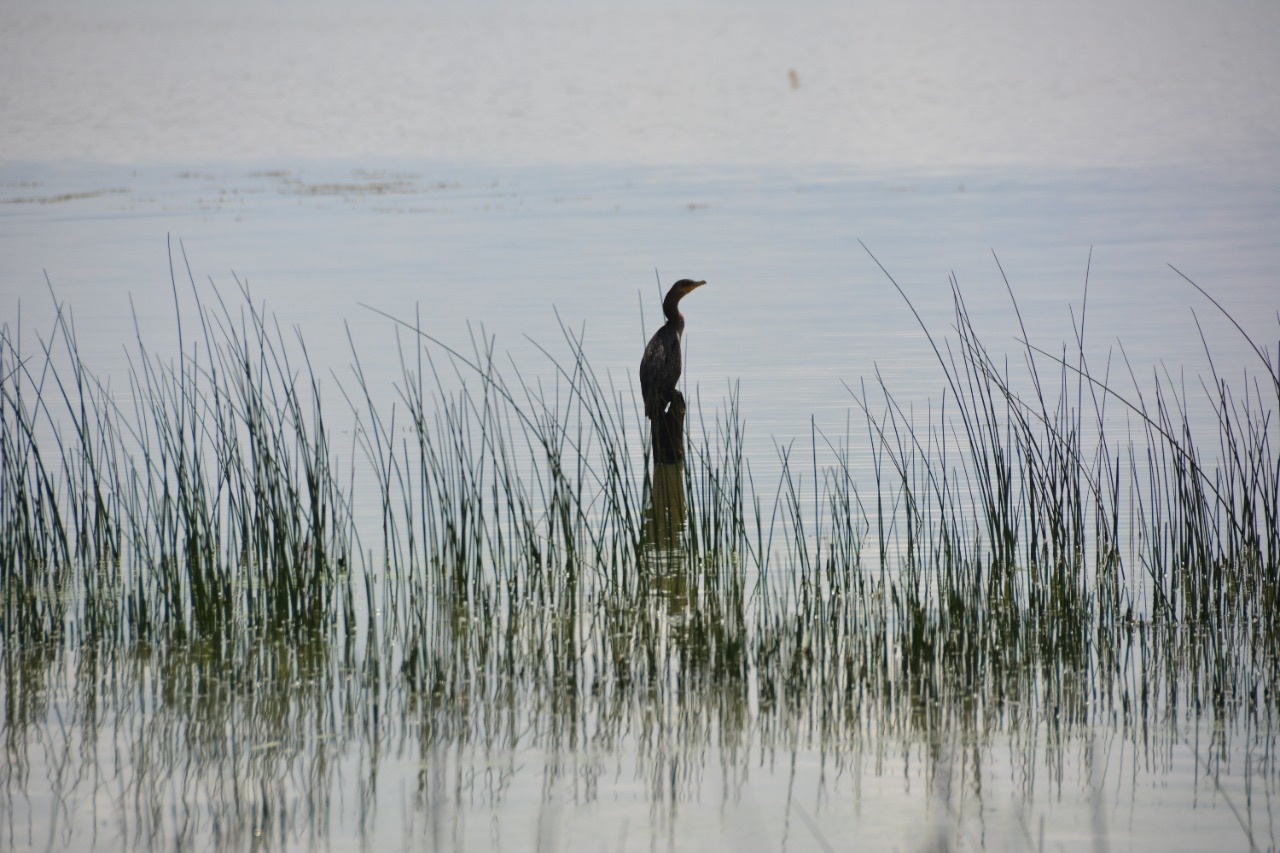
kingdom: Animalia
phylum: Chordata
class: Aves
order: Suliformes
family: Phalacrocoracidae
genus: Phalacrocorax
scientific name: Phalacrocorax brasilianus
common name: Neotropic cormorant
